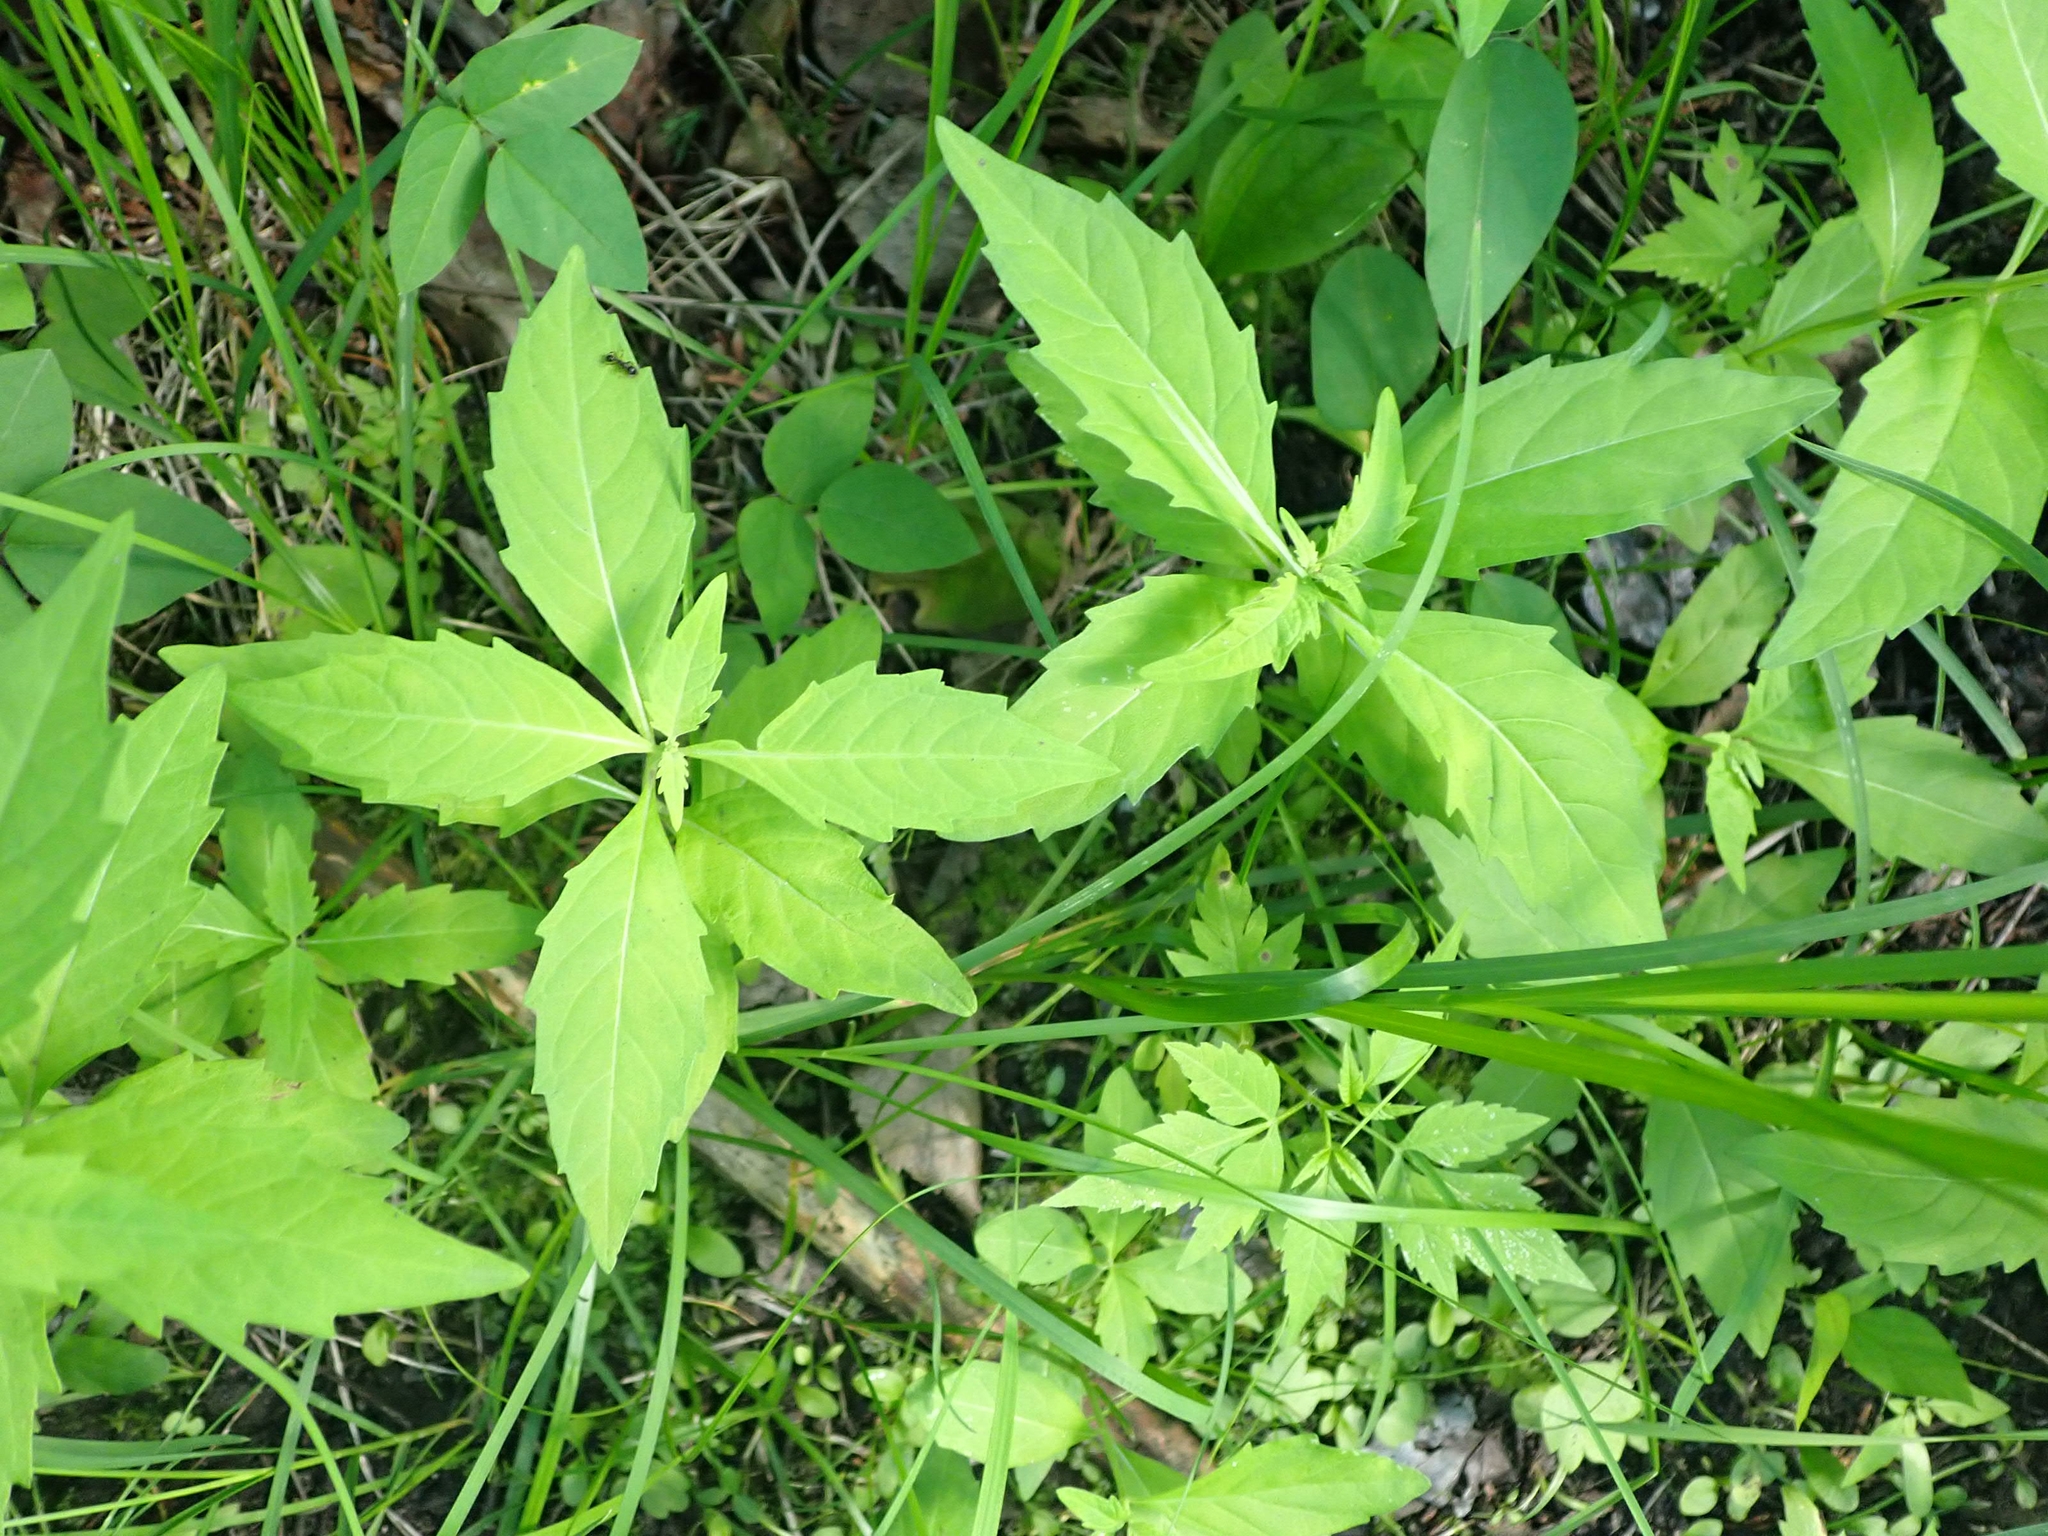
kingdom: Plantae
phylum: Tracheophyta
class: Magnoliopsida
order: Lamiales
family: Lamiaceae
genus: Lycopus
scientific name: Lycopus uniflorus
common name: Northern bugleweed
